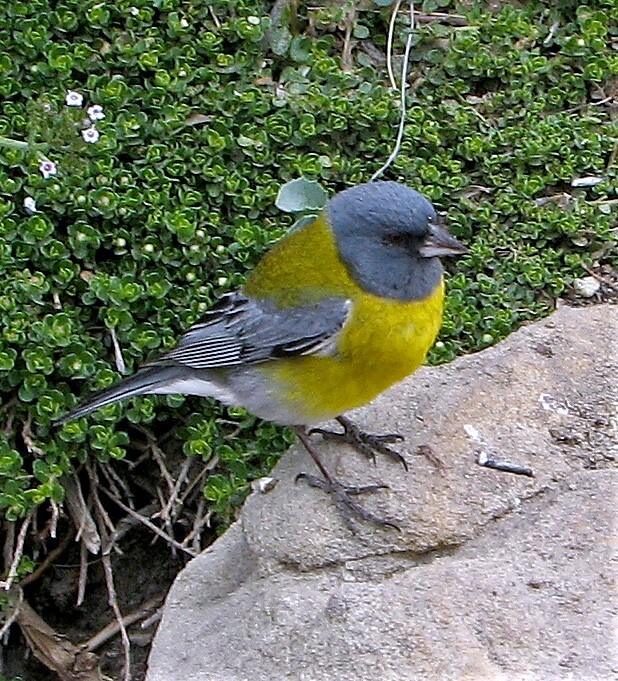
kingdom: Animalia
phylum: Chordata
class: Aves
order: Passeriformes
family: Thraupidae
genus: Phrygilus
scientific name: Phrygilus gayi
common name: Grey-hooded sierra finch
